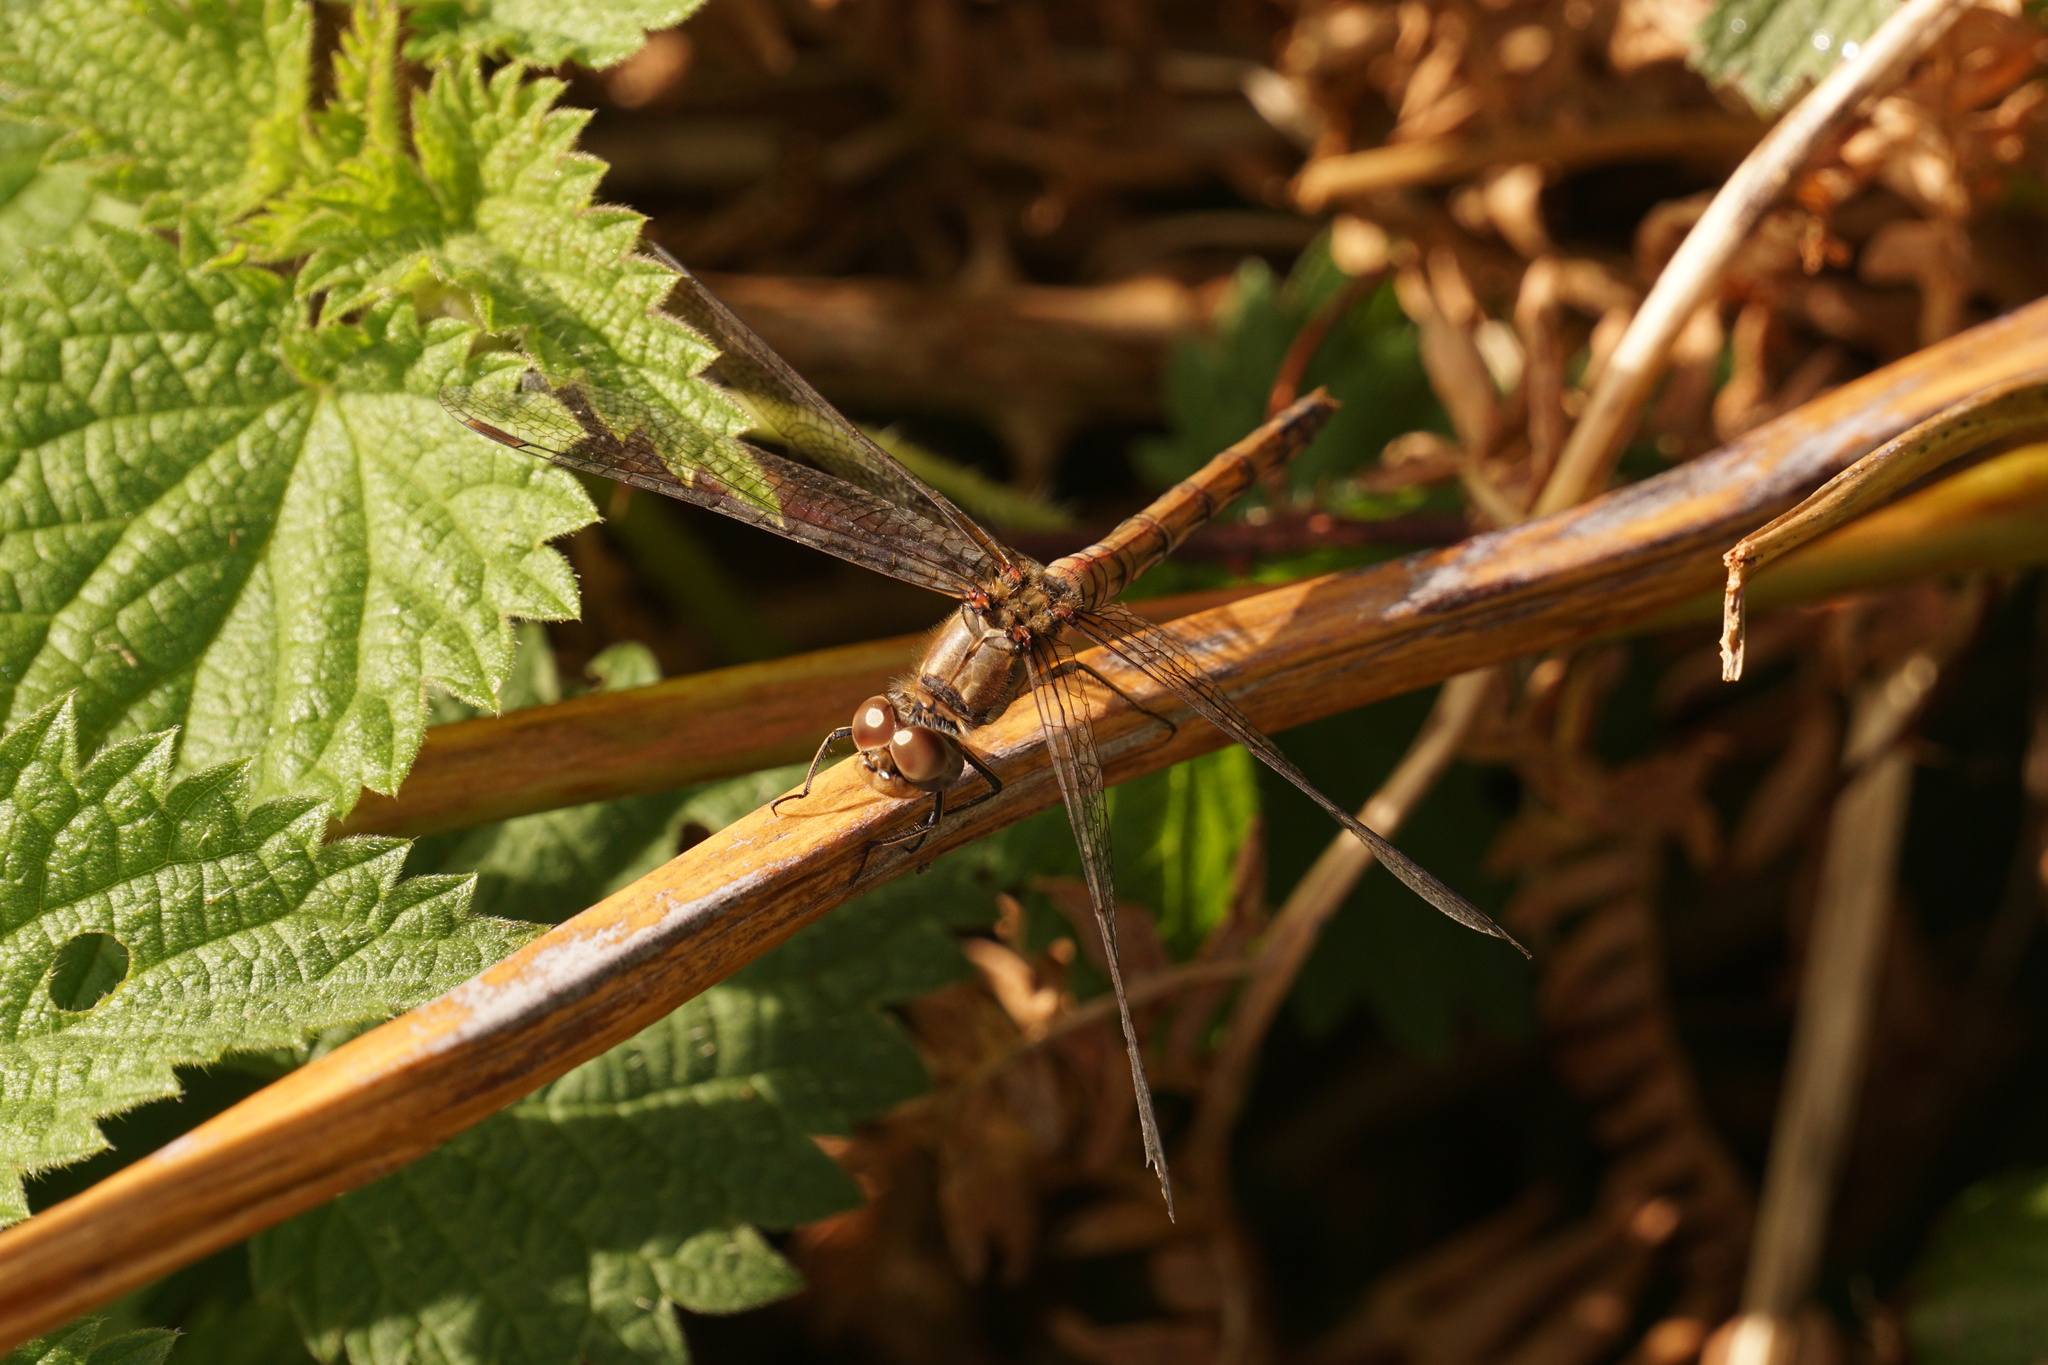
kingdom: Animalia
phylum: Arthropoda
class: Insecta
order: Odonata
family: Libellulidae
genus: Sympetrum
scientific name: Sympetrum striolatum
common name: Common darter
